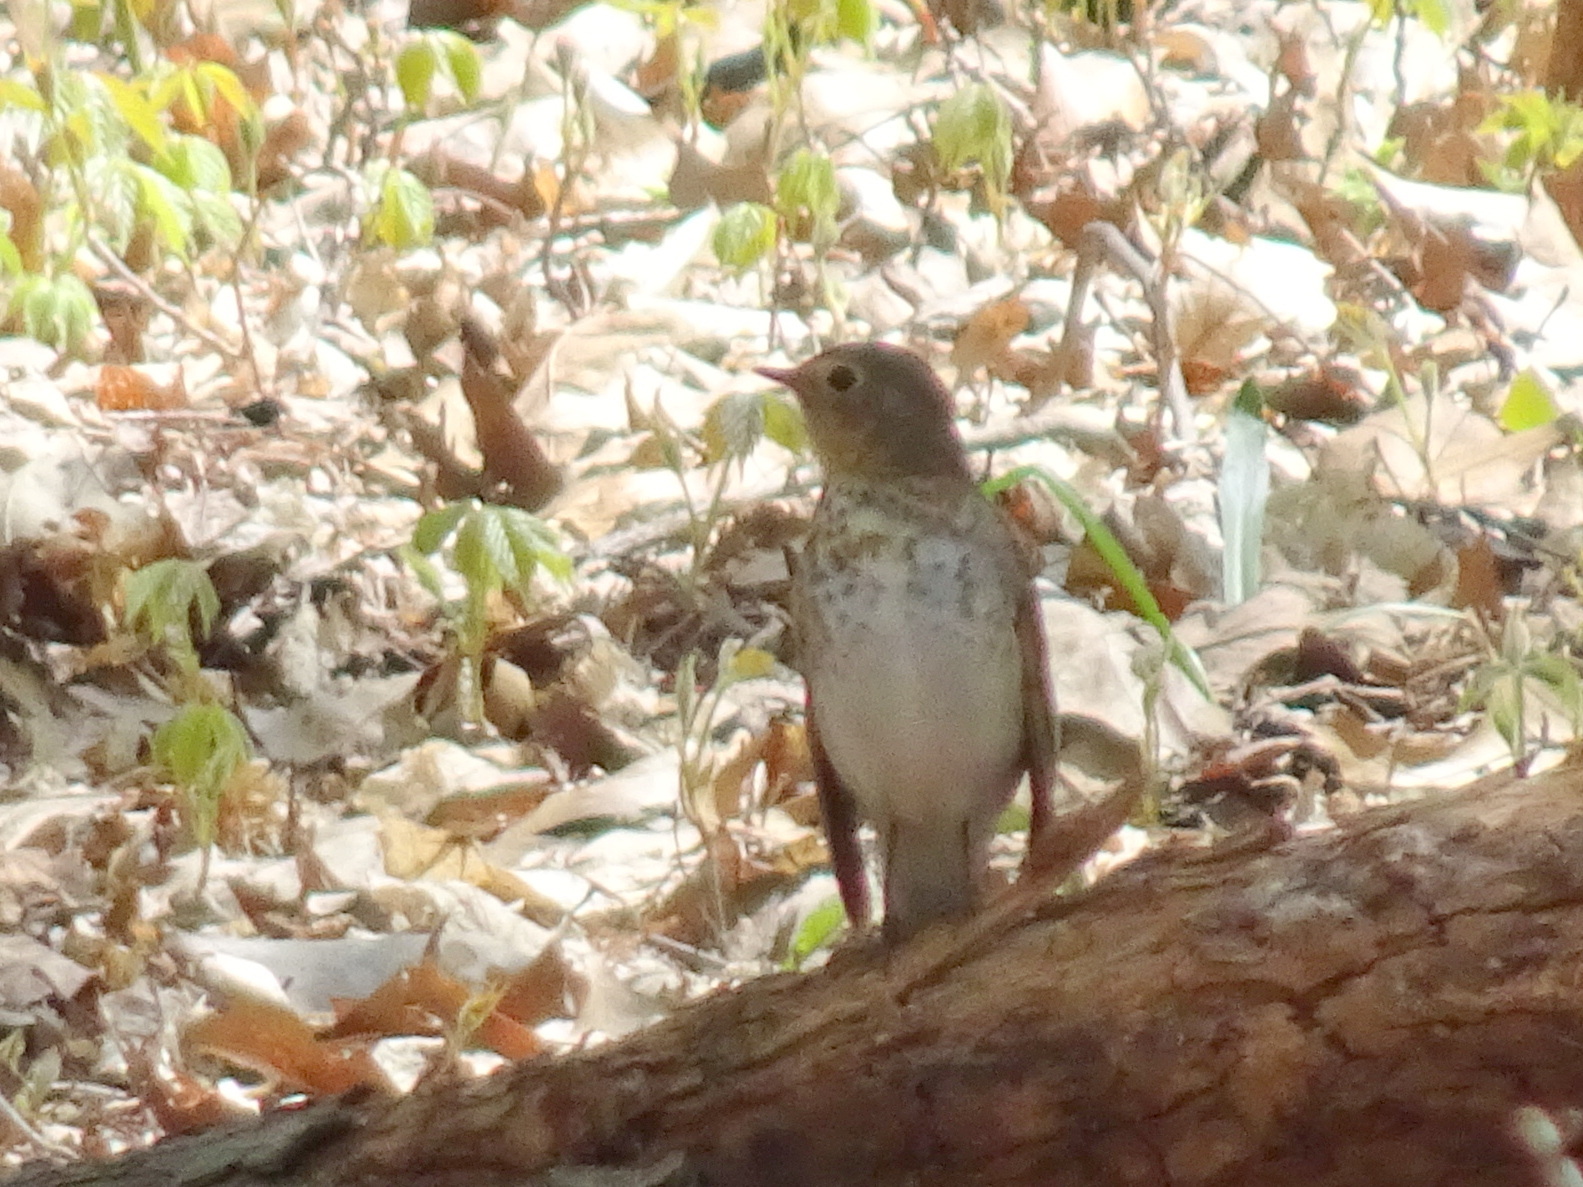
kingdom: Animalia
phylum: Chordata
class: Aves
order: Passeriformes
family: Turdidae
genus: Catharus
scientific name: Catharus ustulatus
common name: Swainson's thrush
